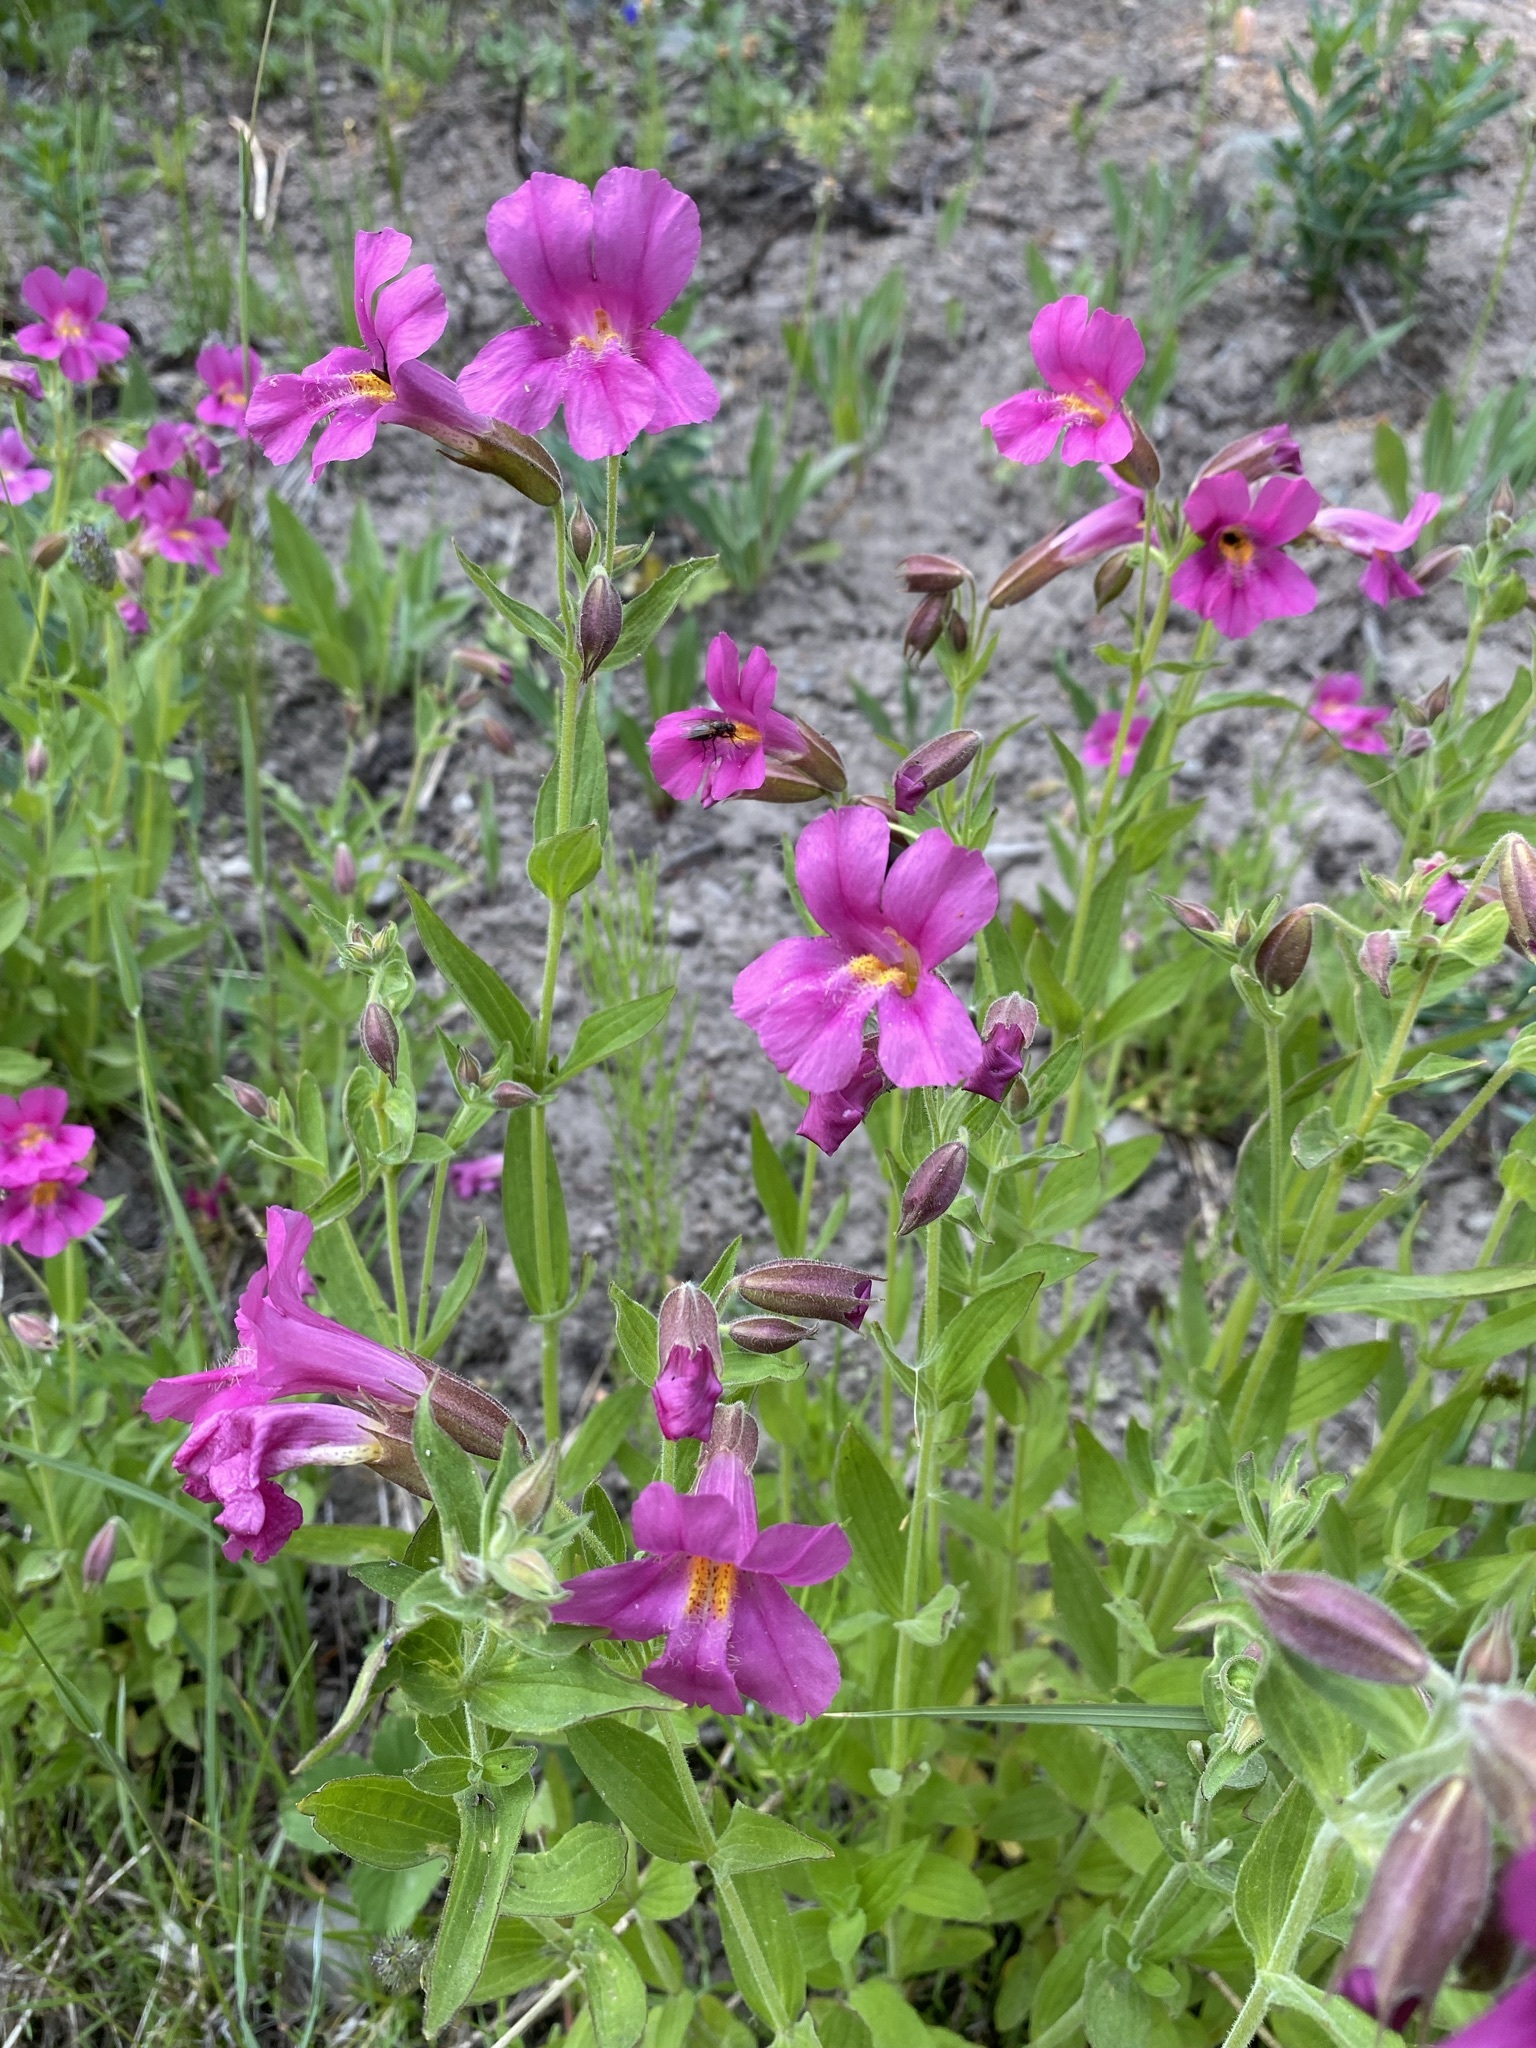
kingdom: Plantae
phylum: Tracheophyta
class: Magnoliopsida
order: Lamiales
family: Phrymaceae
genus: Erythranthe
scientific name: Erythranthe lewisii
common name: Lewis's monkey-flower
